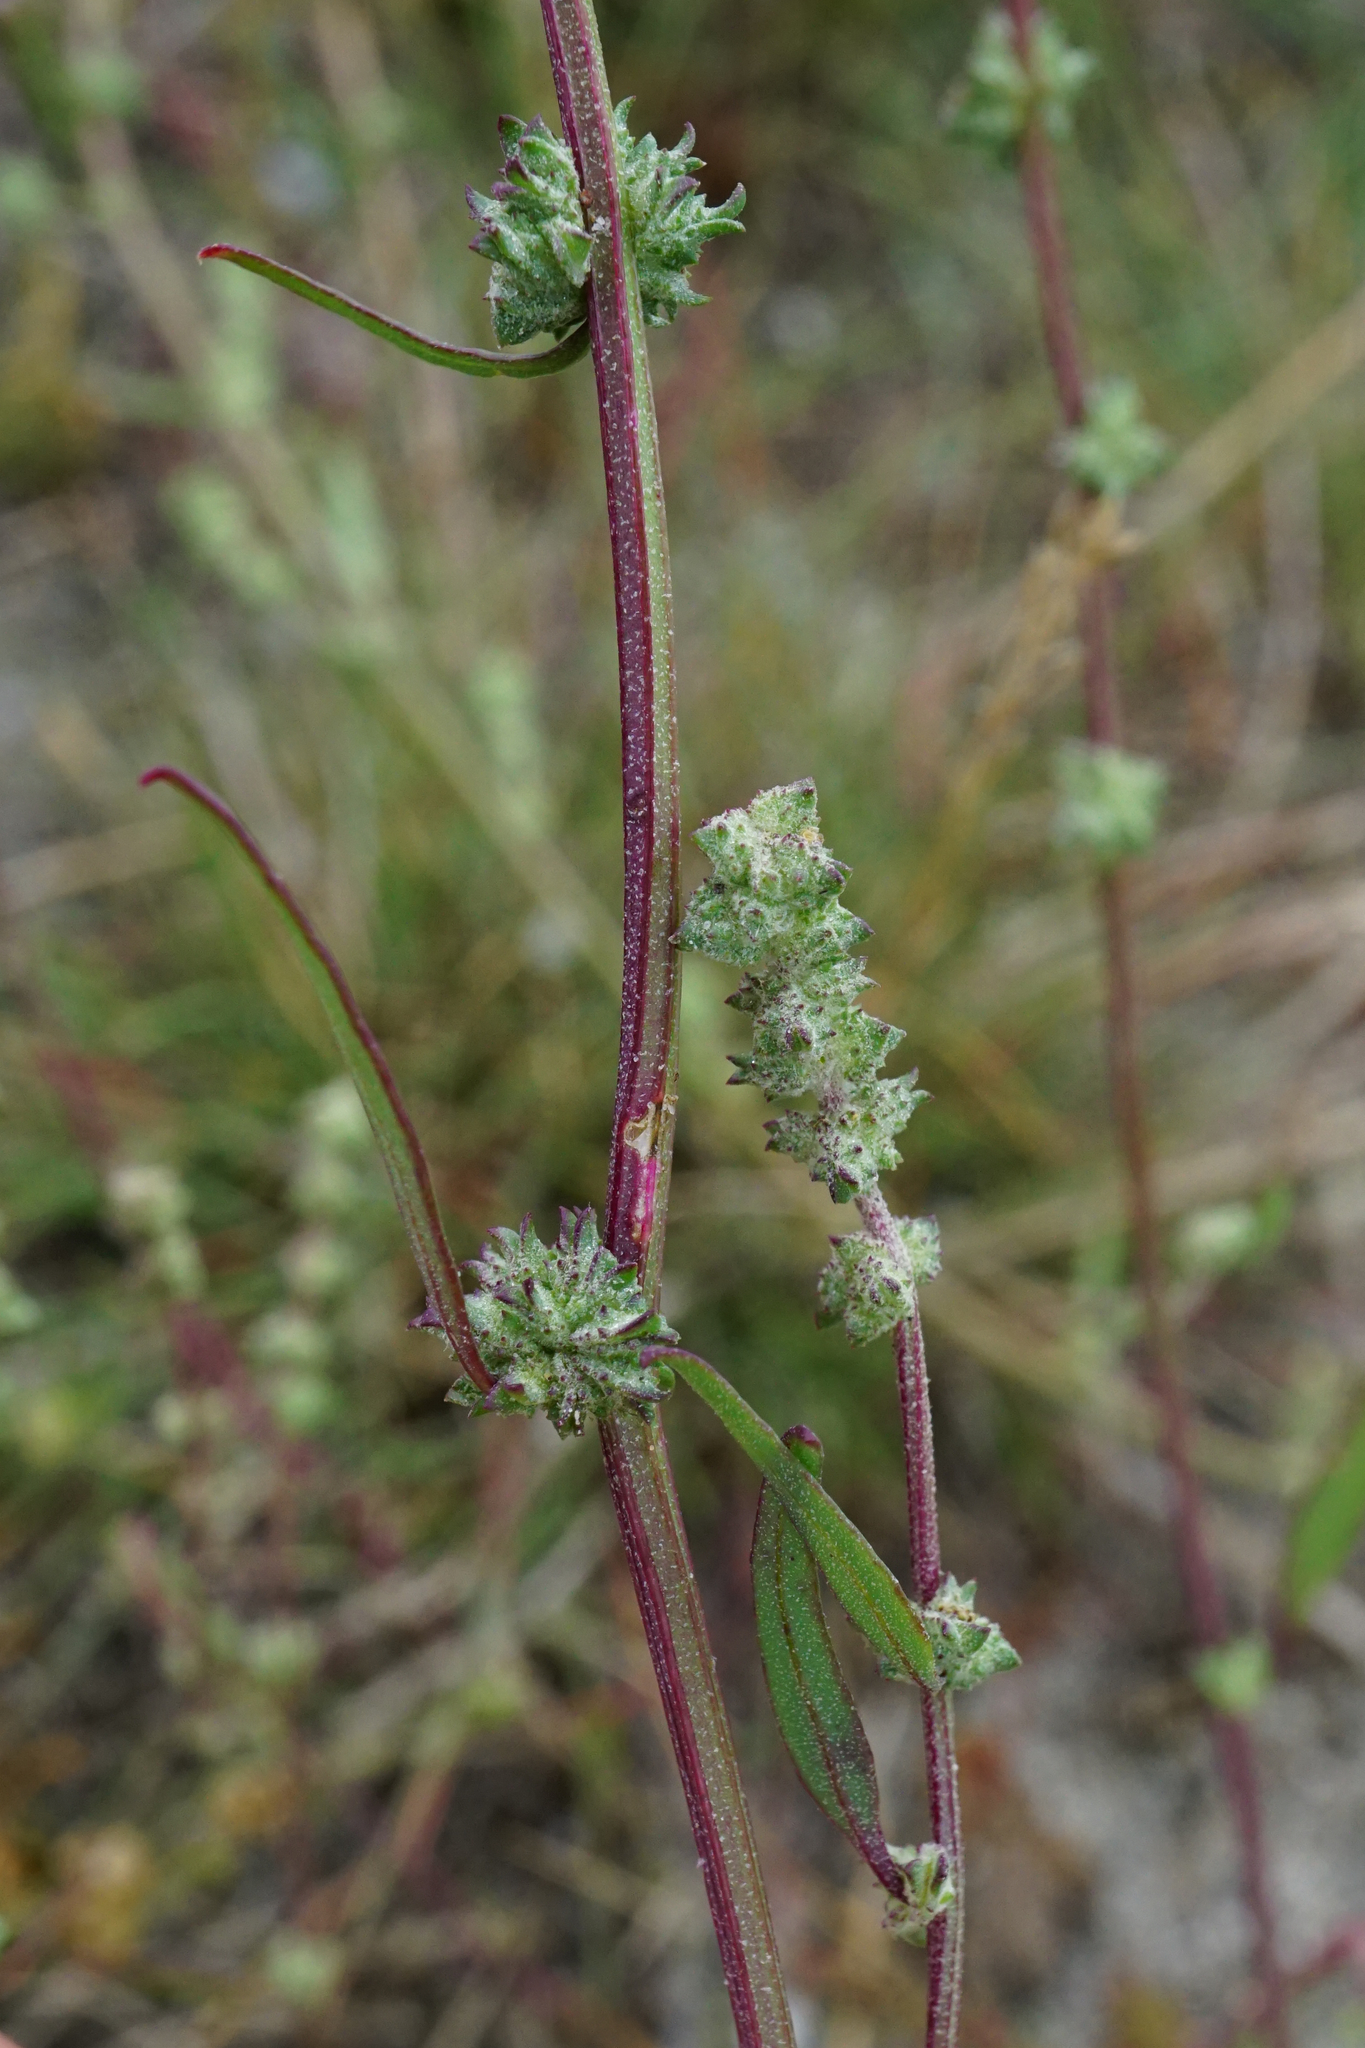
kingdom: Plantae
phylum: Tracheophyta
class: Magnoliopsida
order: Caryophyllales
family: Amaranthaceae
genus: Atriplex
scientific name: Atriplex intracontinentalis
